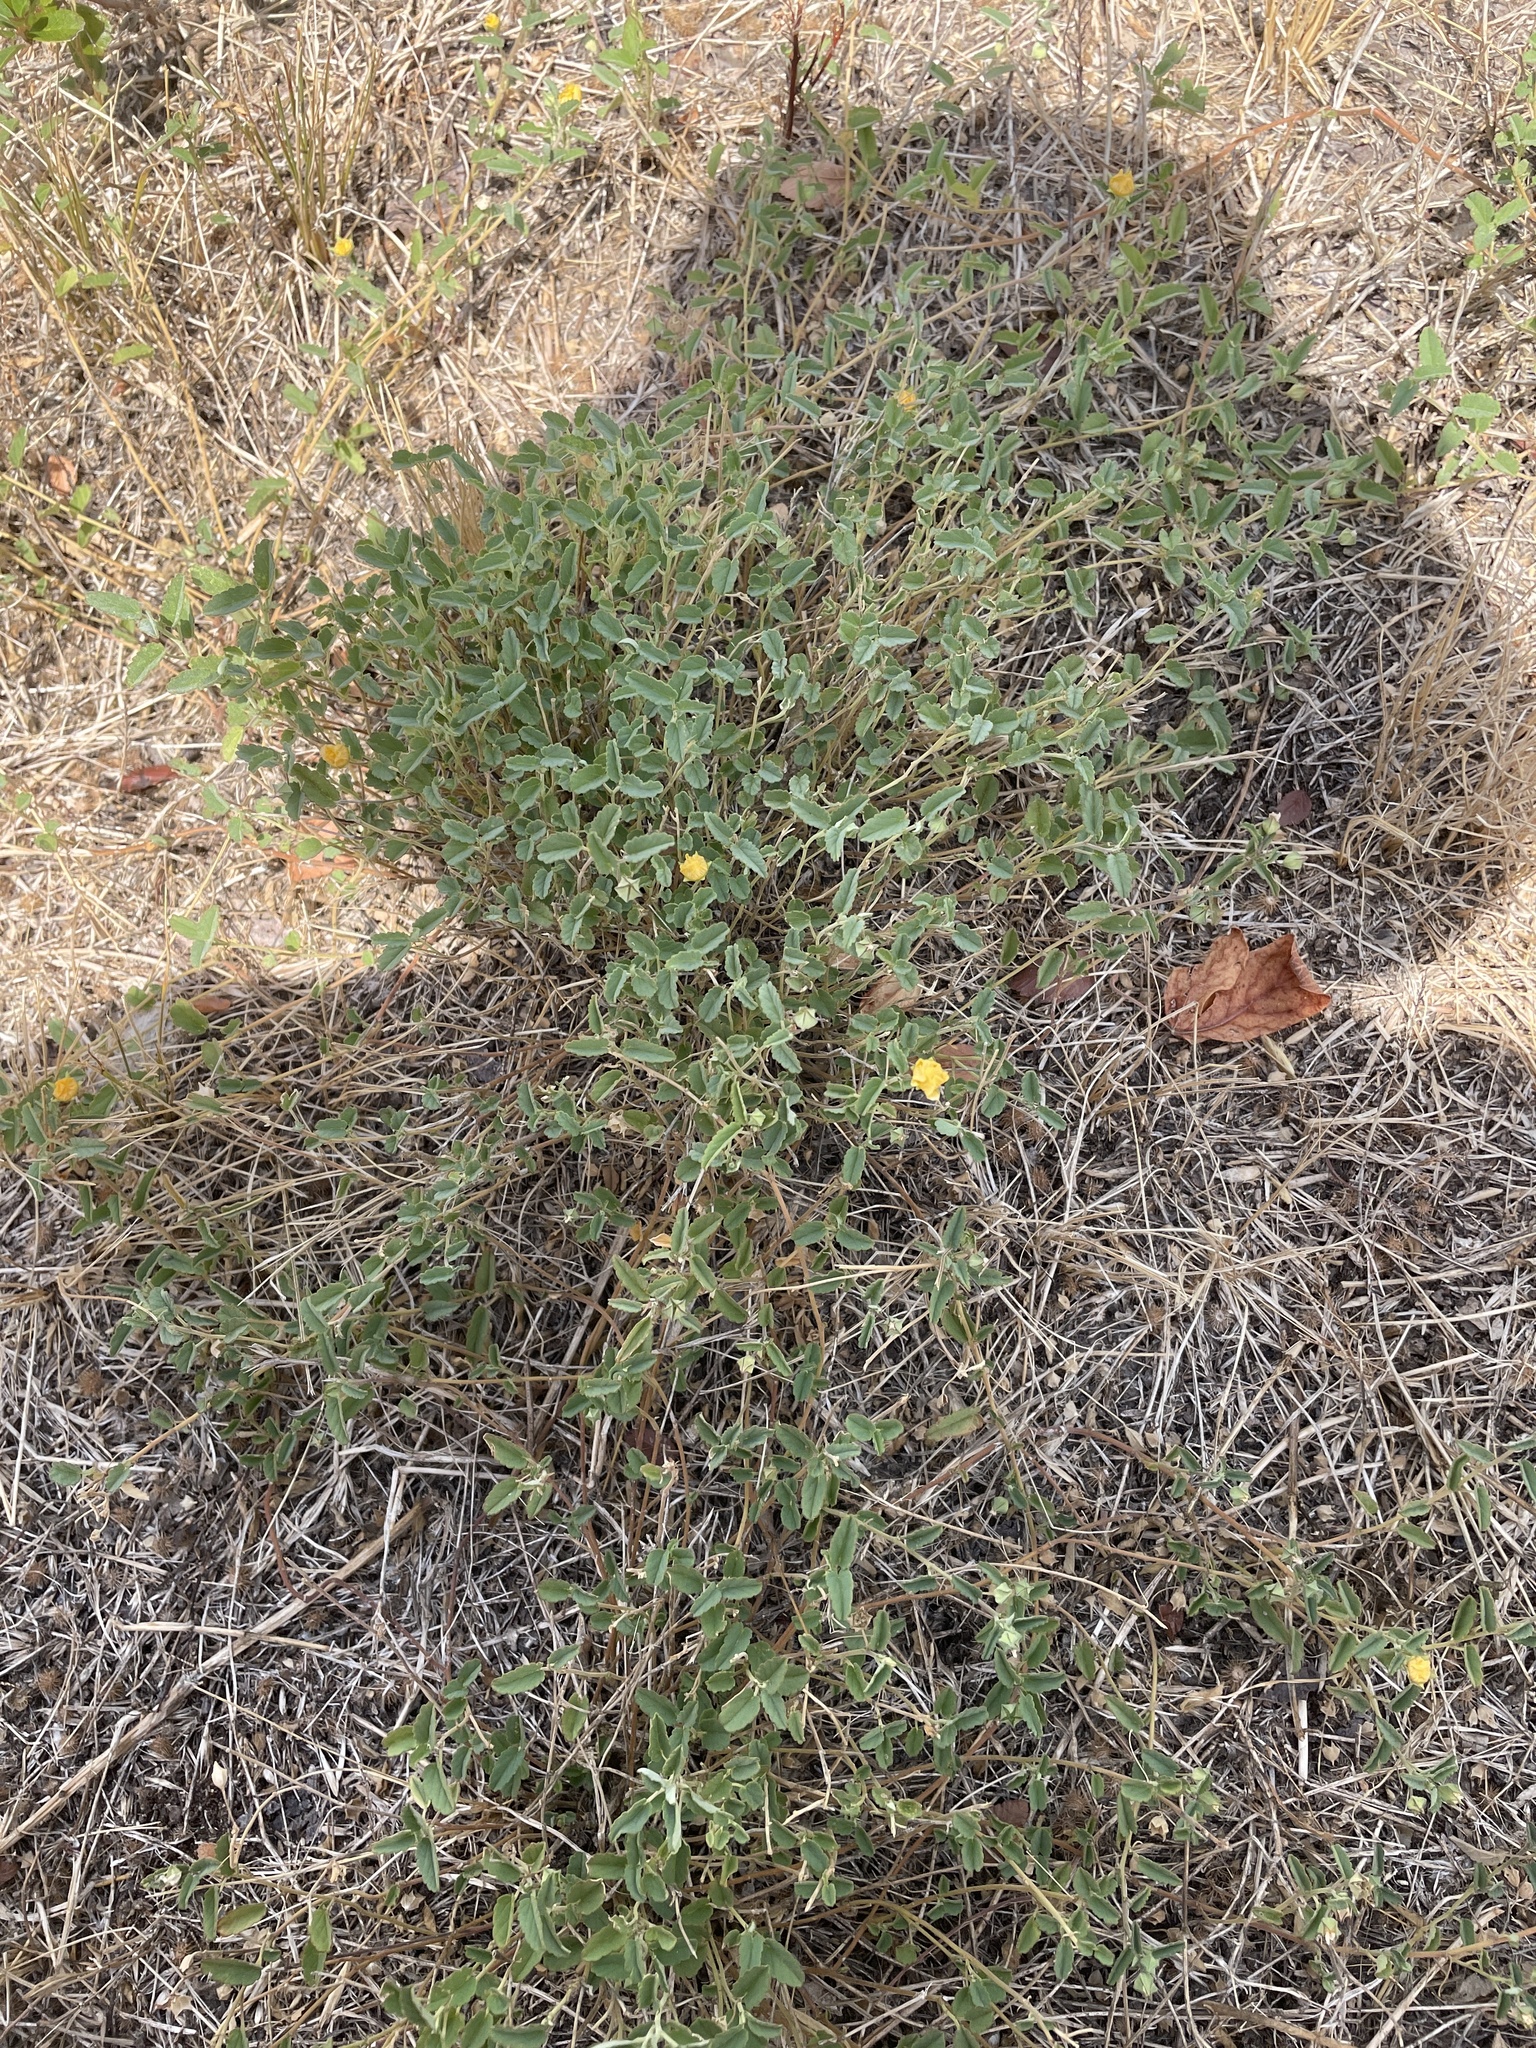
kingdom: Plantae
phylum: Tracheophyta
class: Magnoliopsida
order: Malvales
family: Malvaceae
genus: Sida
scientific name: Sida abutilifolia
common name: Spreading fanpetals
